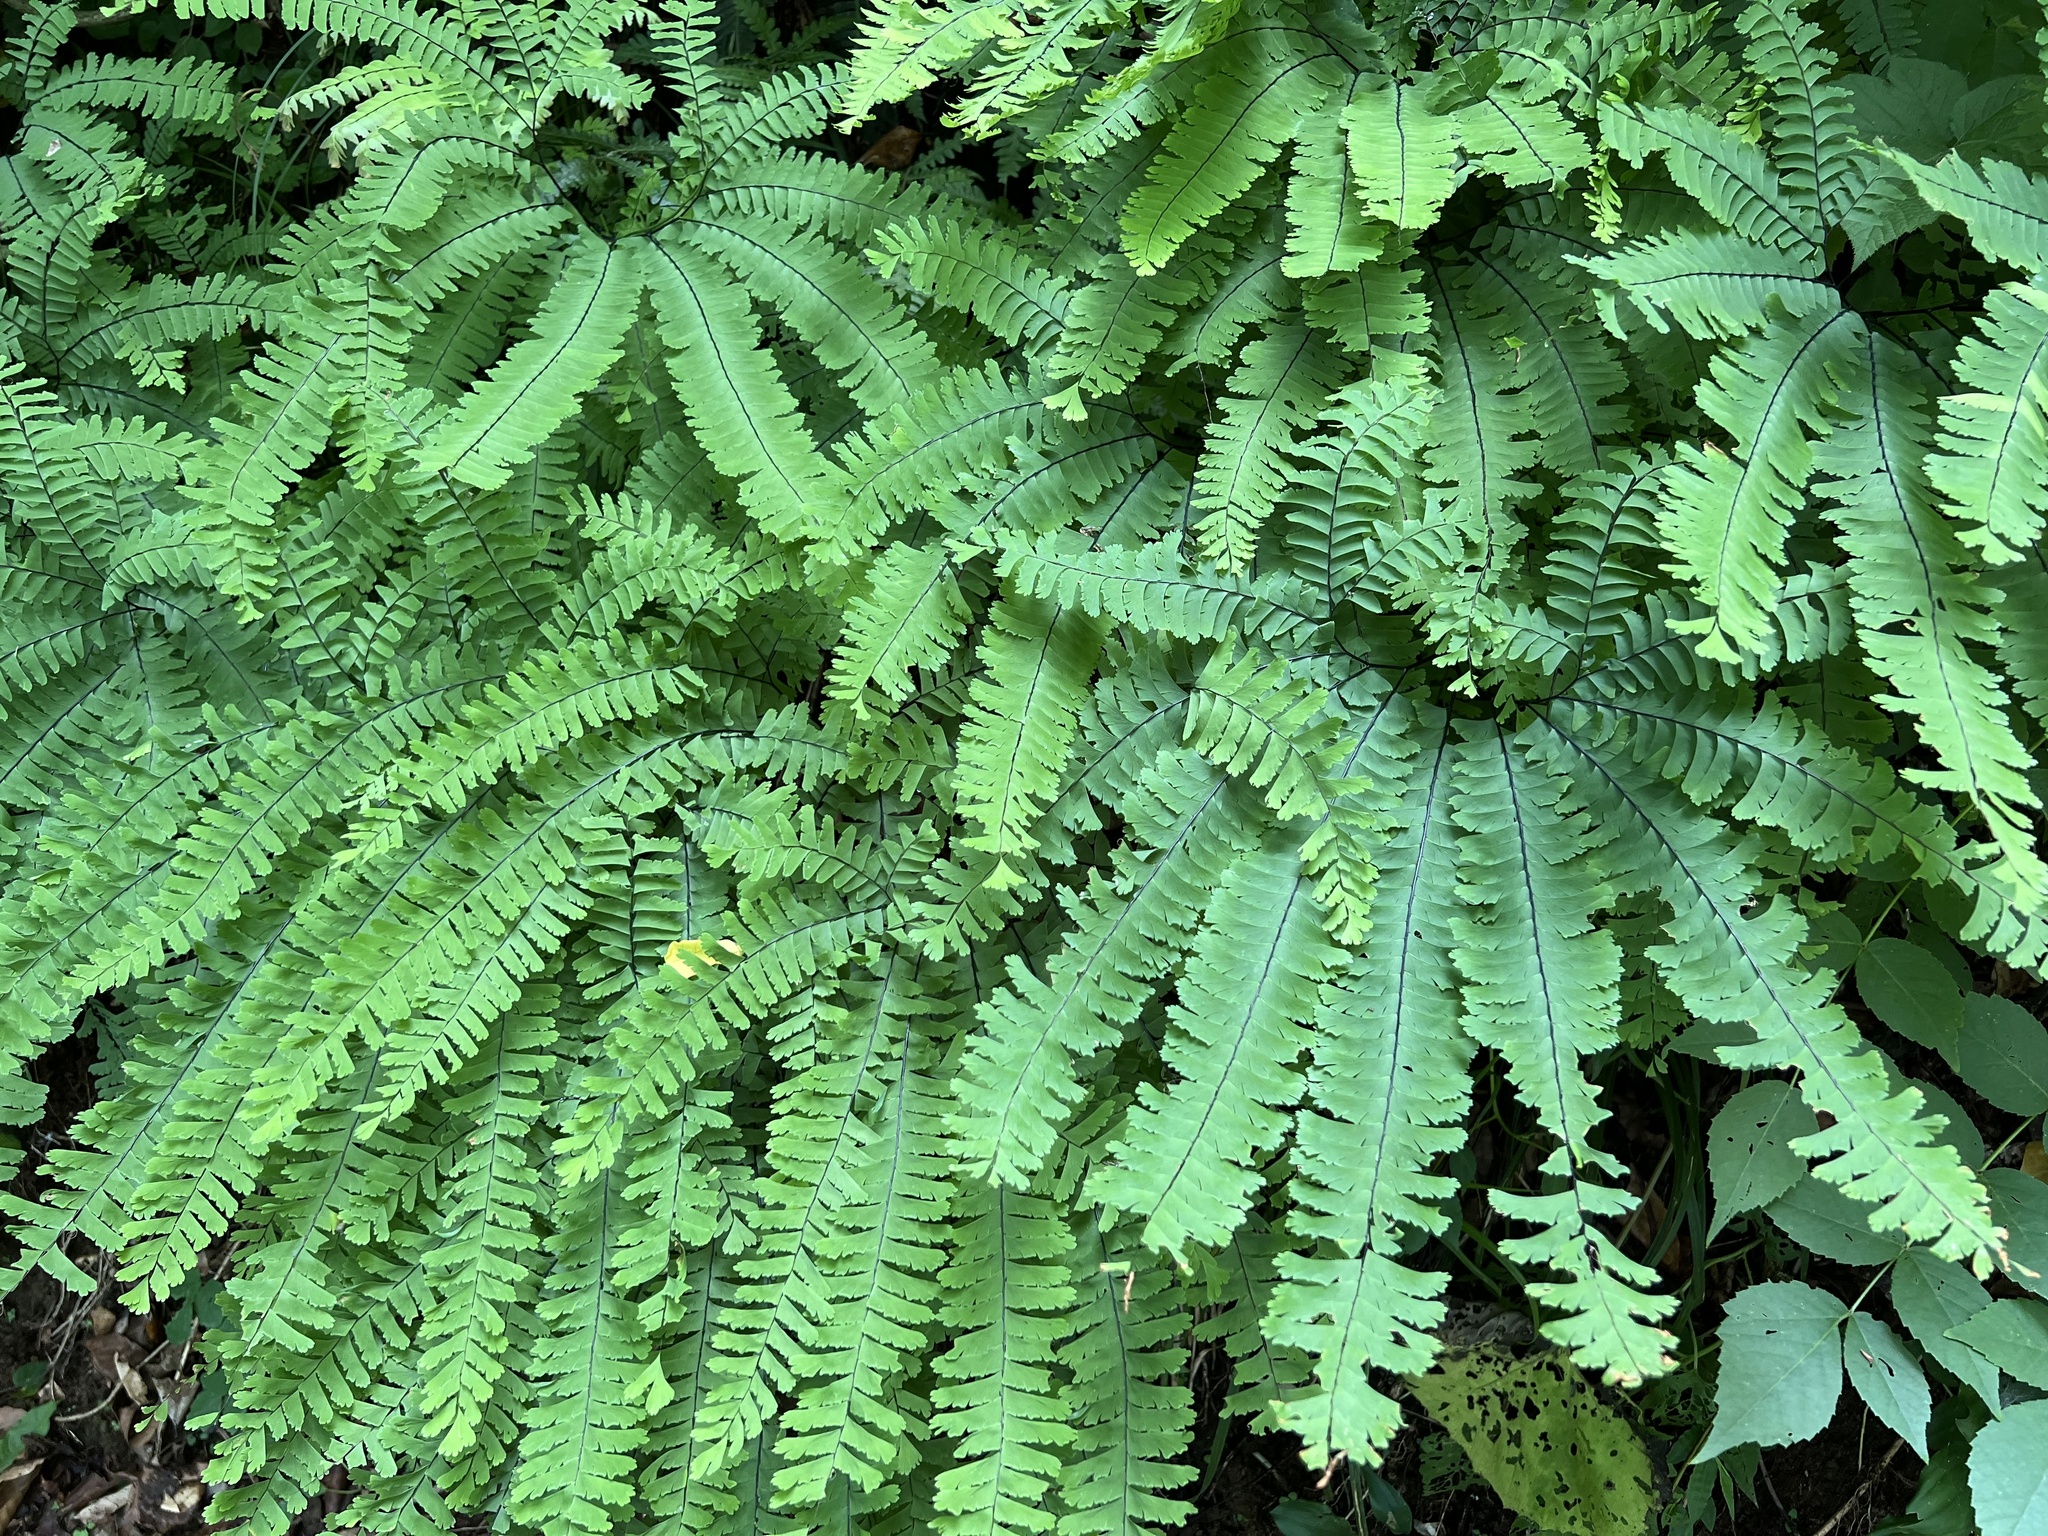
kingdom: Plantae
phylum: Tracheophyta
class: Polypodiopsida
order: Polypodiales
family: Pteridaceae
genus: Adiantum
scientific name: Adiantum pedatum
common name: Five-finger fern
